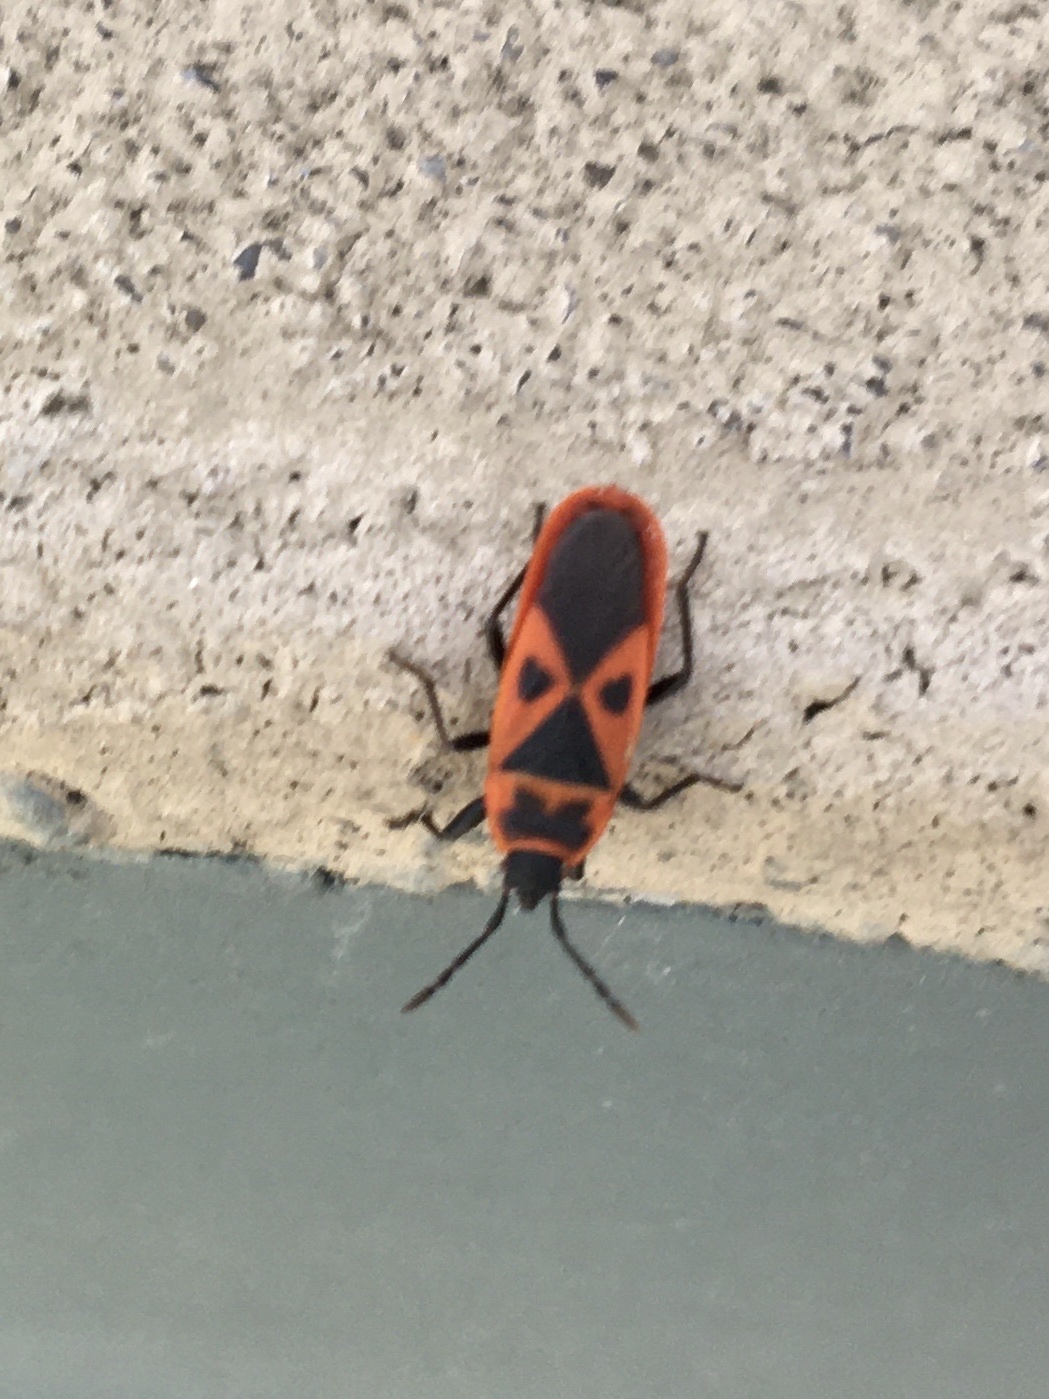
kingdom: Animalia
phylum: Arthropoda
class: Insecta
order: Hemiptera
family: Pyrrhocoridae
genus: Scantius
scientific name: Scantius aegyptius
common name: Red bug
